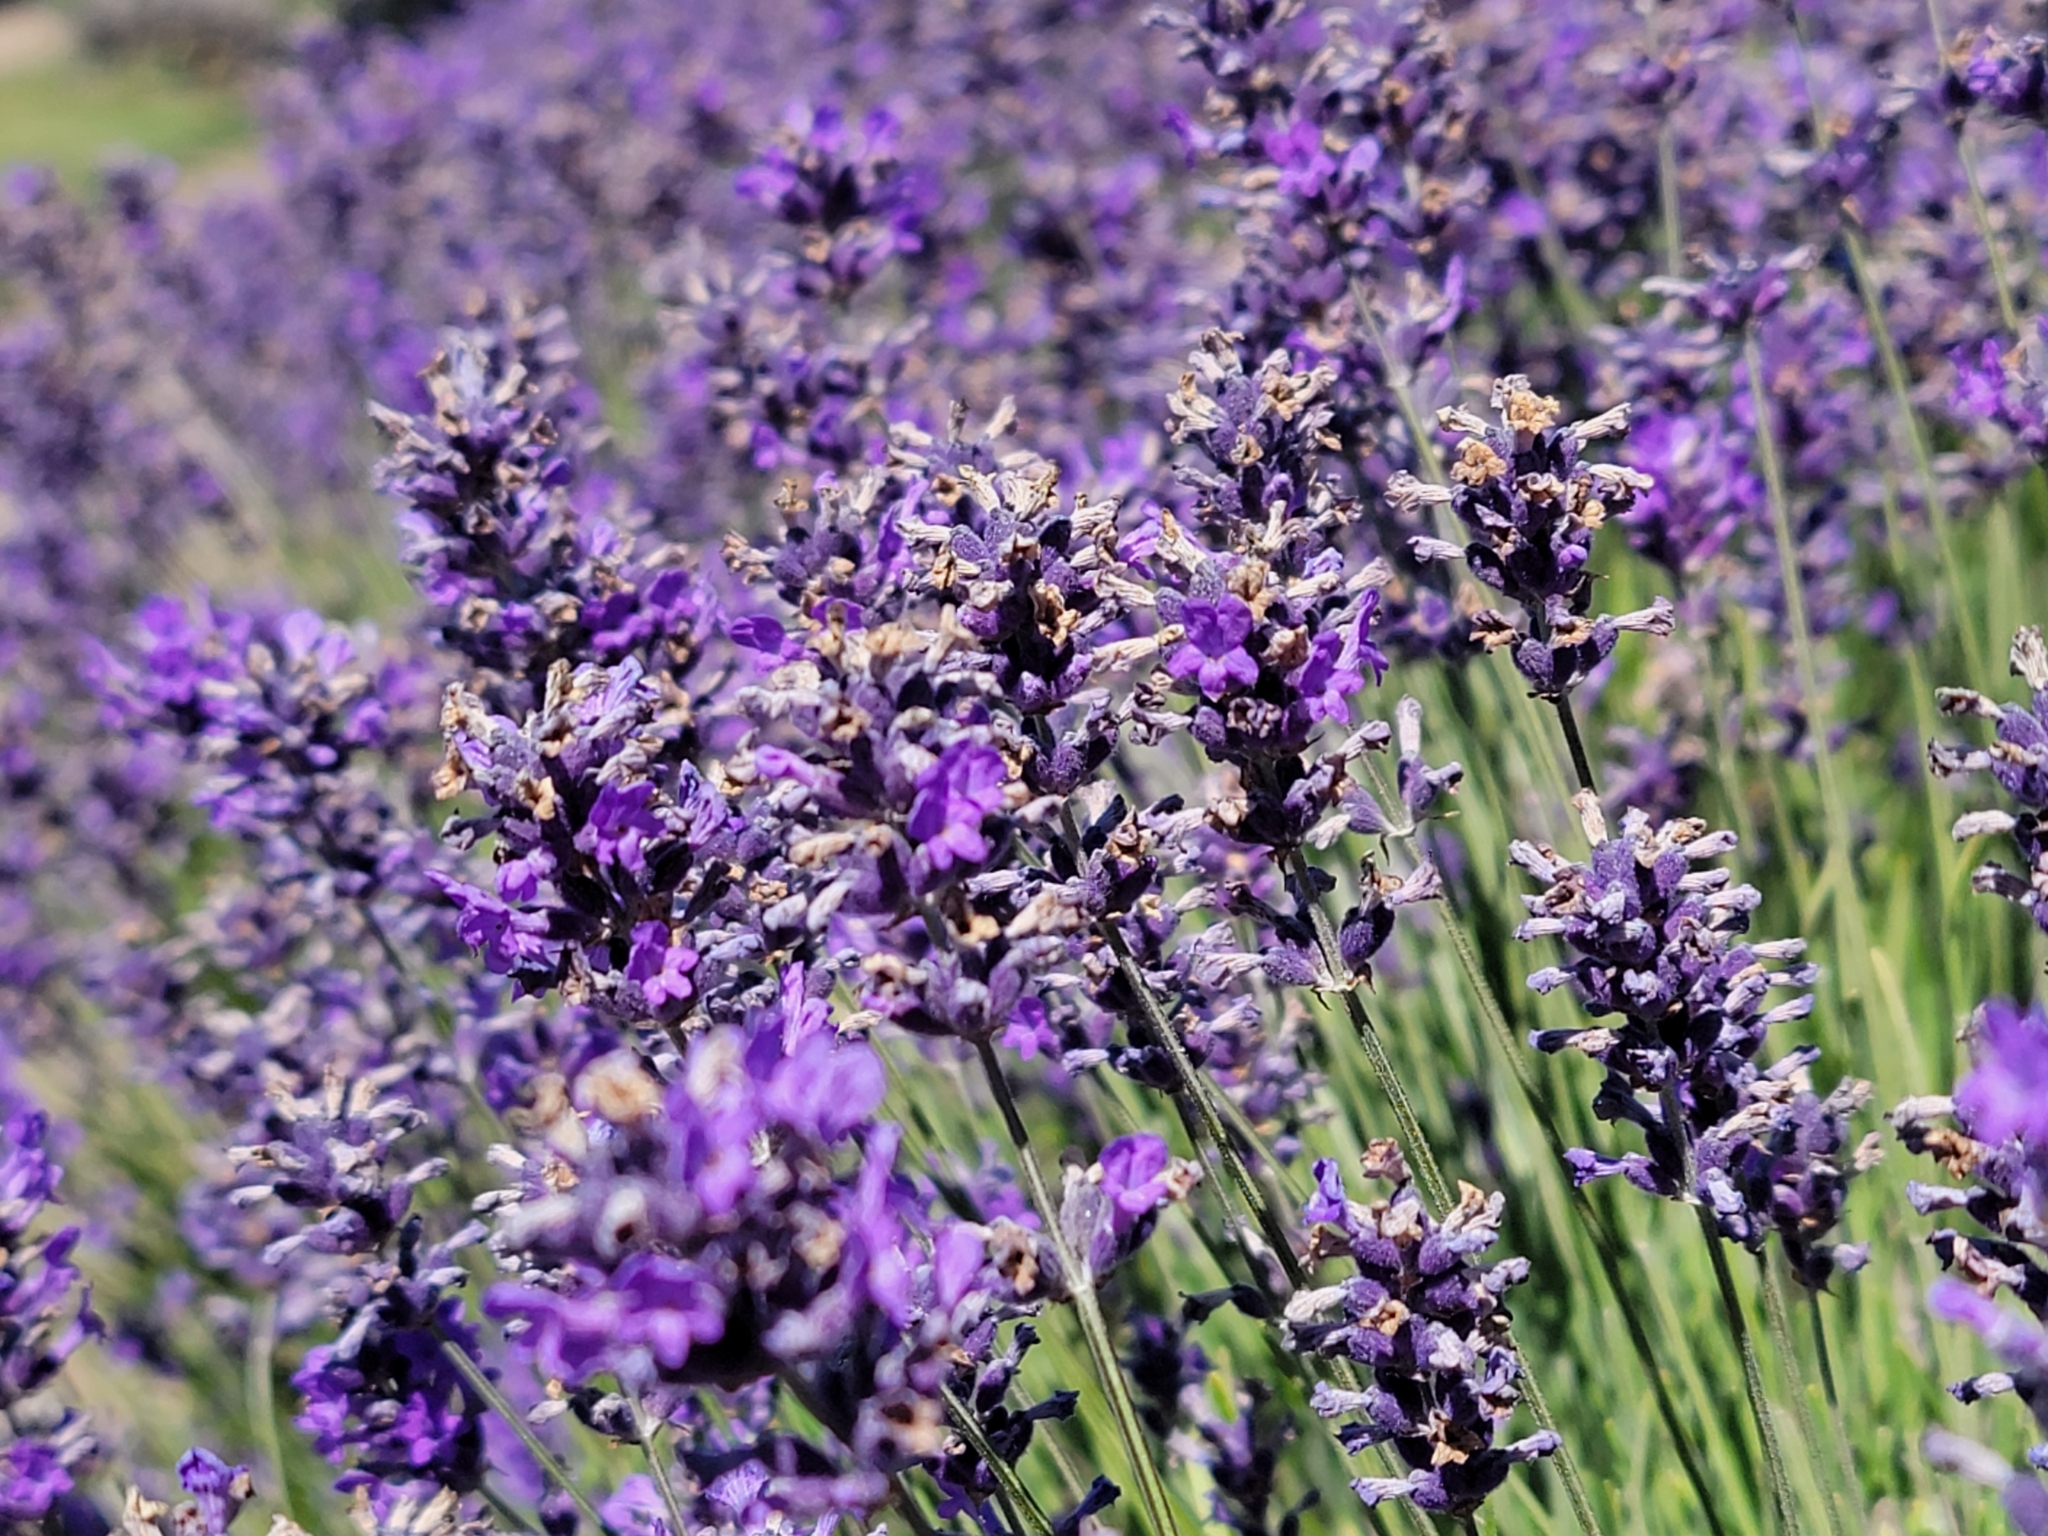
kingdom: Plantae
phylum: Tracheophyta
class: Magnoliopsida
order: Lamiales
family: Lamiaceae
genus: Lavandula
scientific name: Lavandula angustifolia
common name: Garden lavender
